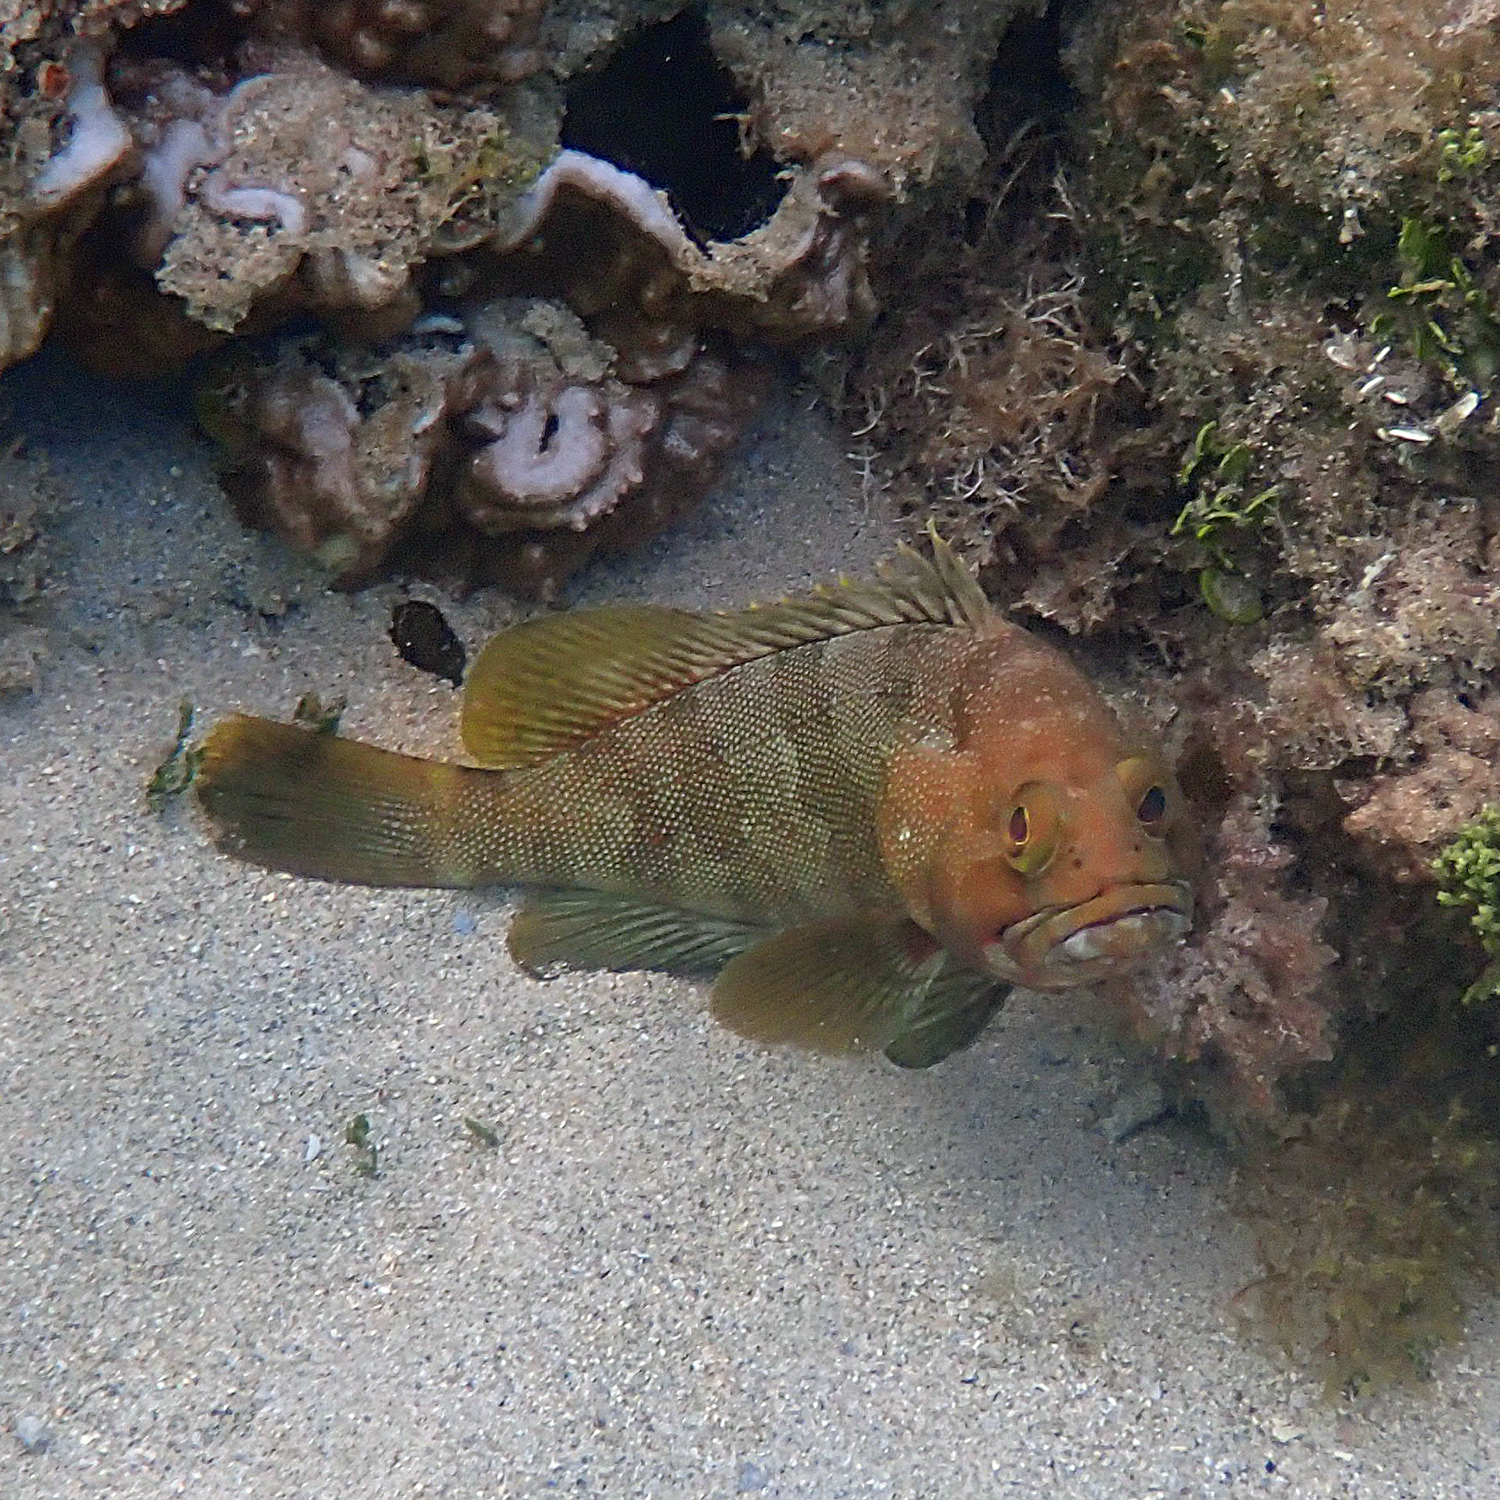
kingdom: Animalia
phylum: Chordata
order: Perciformes
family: Serranidae
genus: Epinephelus
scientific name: Epinephelus rivulatus
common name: Halfmoon grouper
